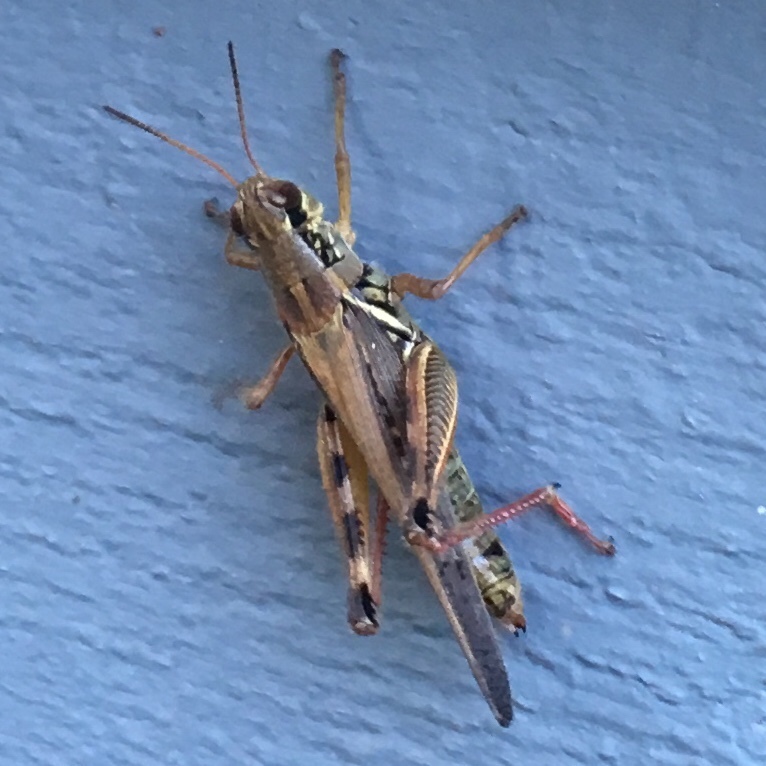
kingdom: Animalia
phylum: Arthropoda
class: Insecta
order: Orthoptera
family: Acrididae
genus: Melanoplus
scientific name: Melanoplus femurrubrum
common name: Red-legged grasshopper
